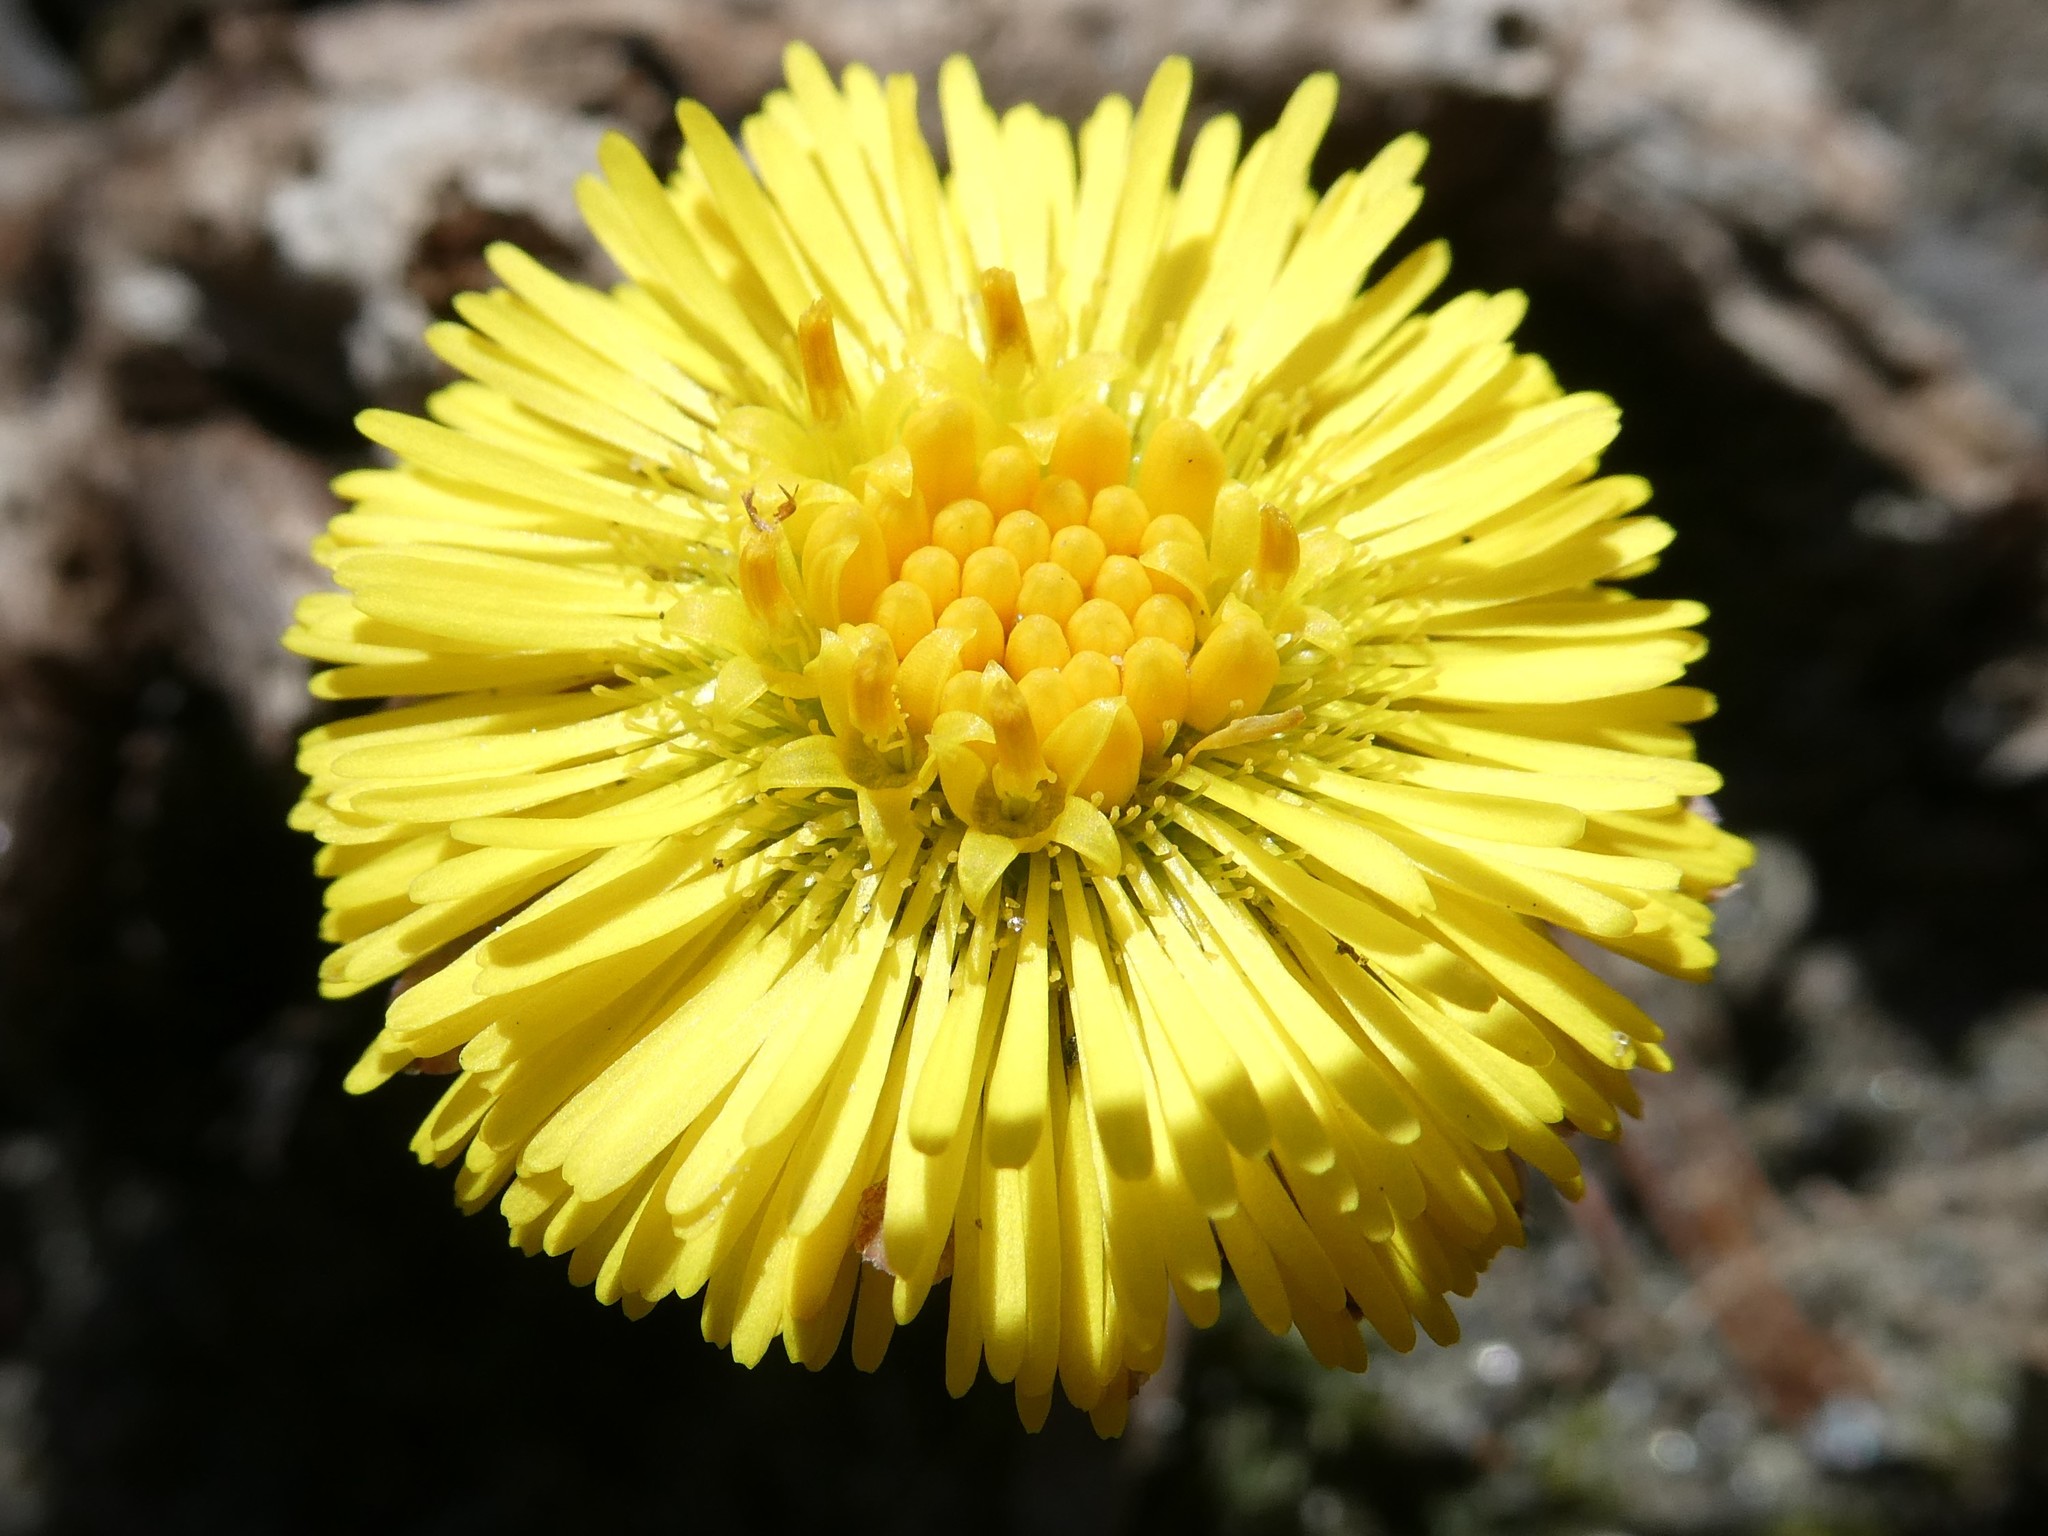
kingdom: Plantae
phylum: Tracheophyta
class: Magnoliopsida
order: Asterales
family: Asteraceae
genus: Tussilago
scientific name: Tussilago farfara
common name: Coltsfoot
